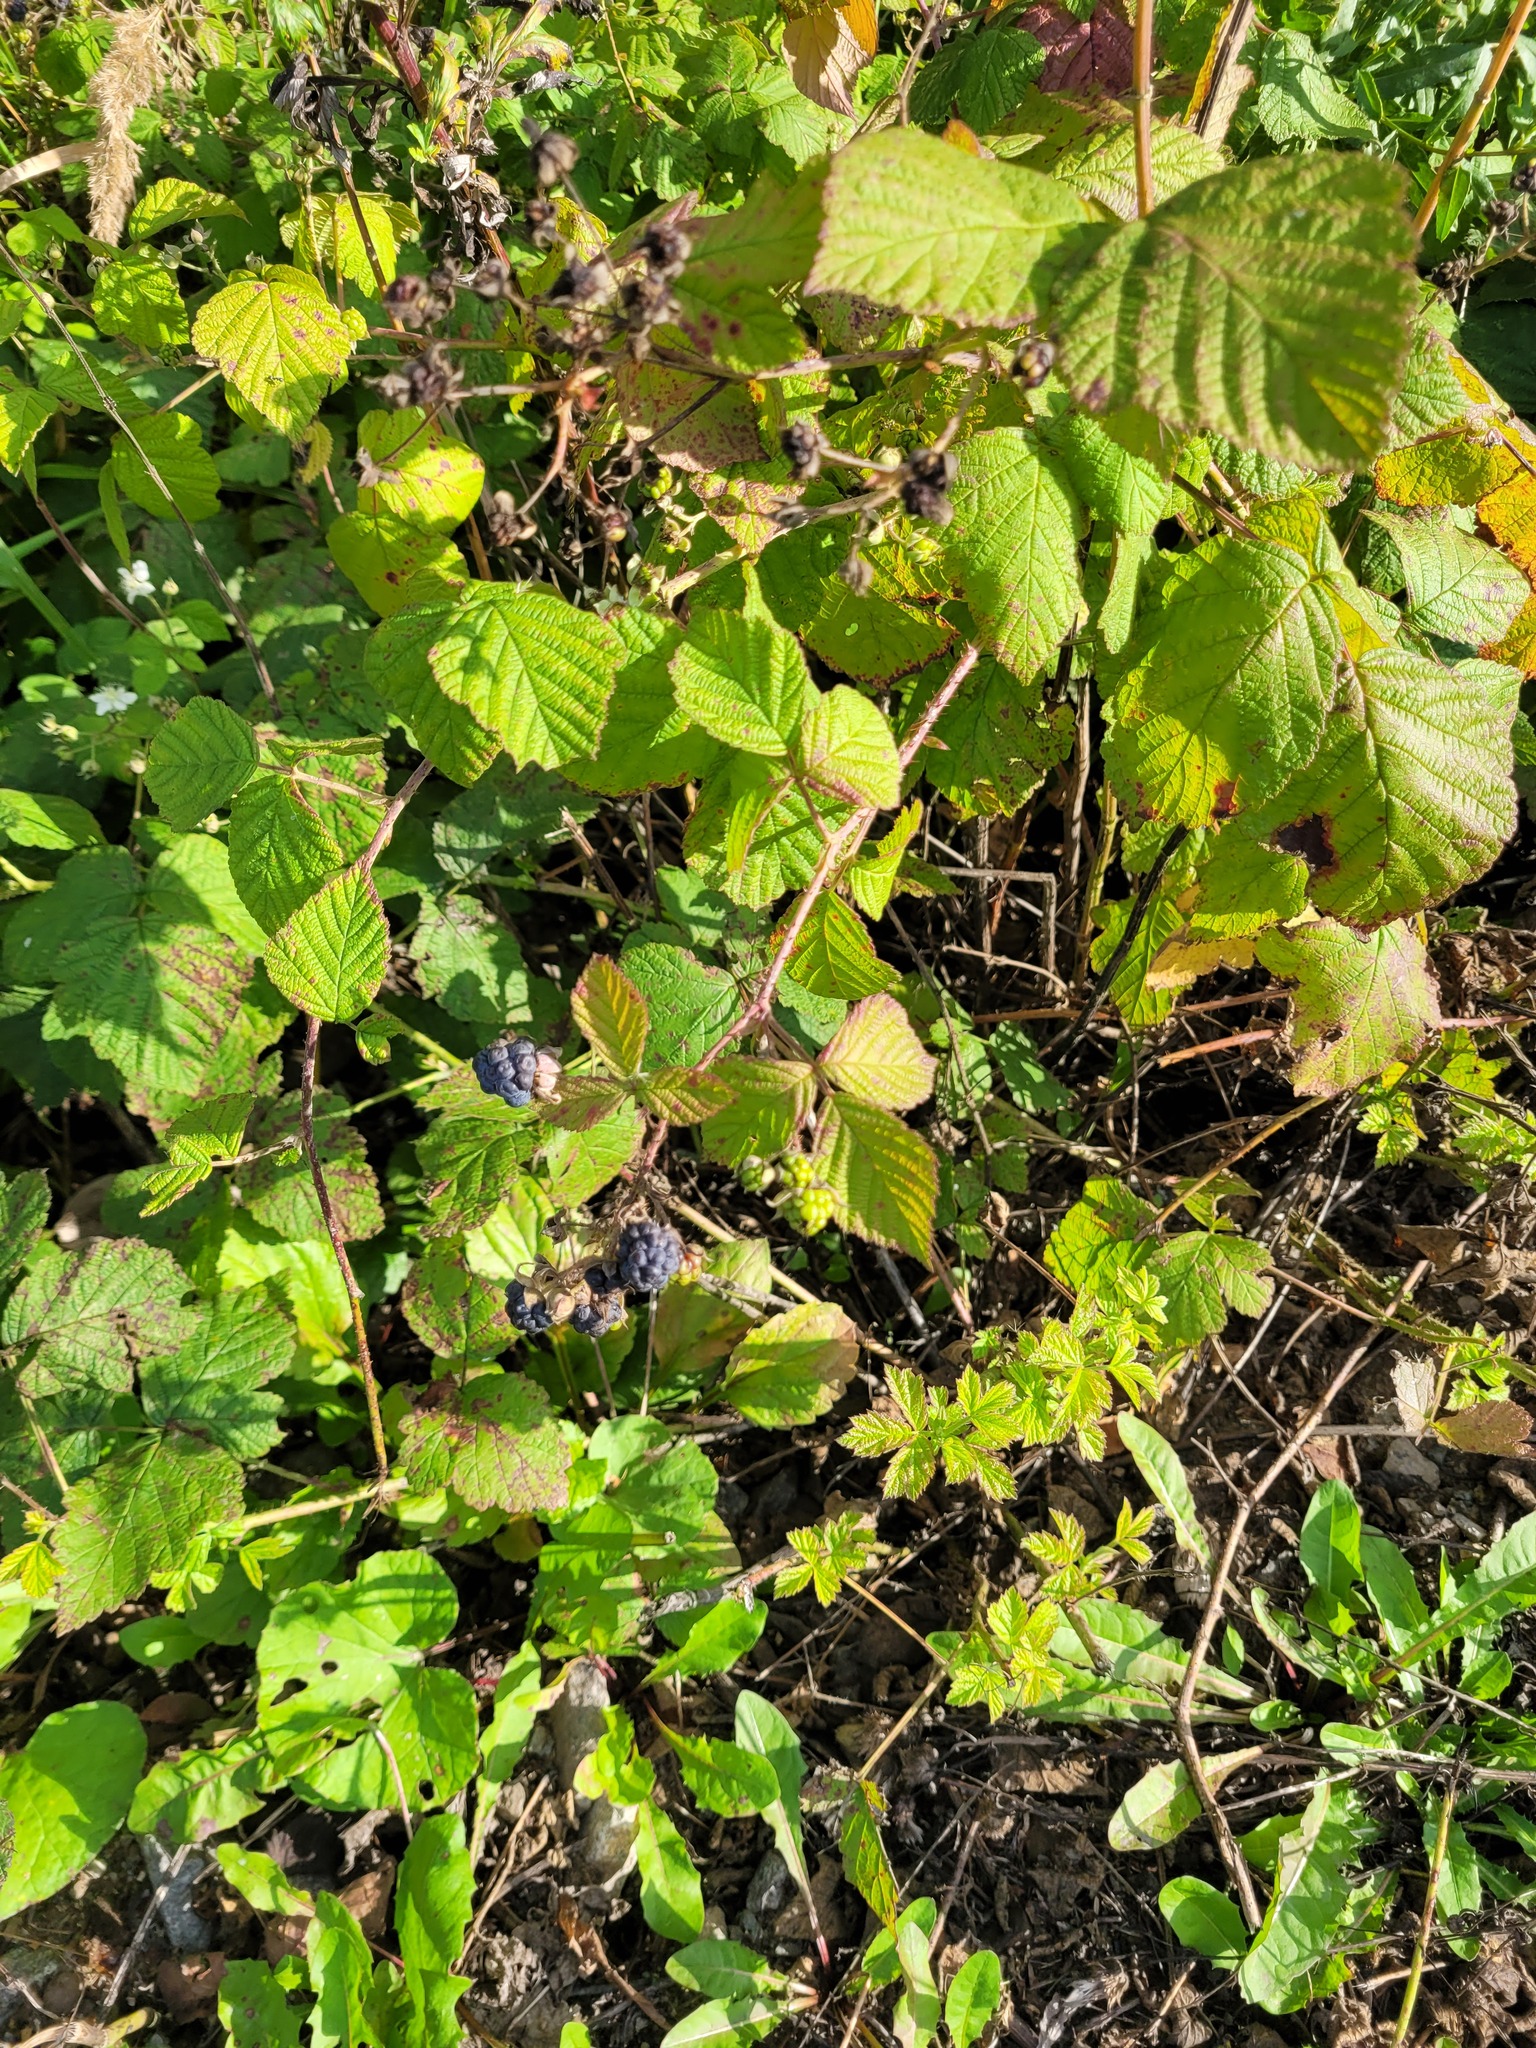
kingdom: Plantae
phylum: Tracheophyta
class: Magnoliopsida
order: Rosales
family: Rosaceae
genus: Rubus
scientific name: Rubus caesius
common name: Dewberry
